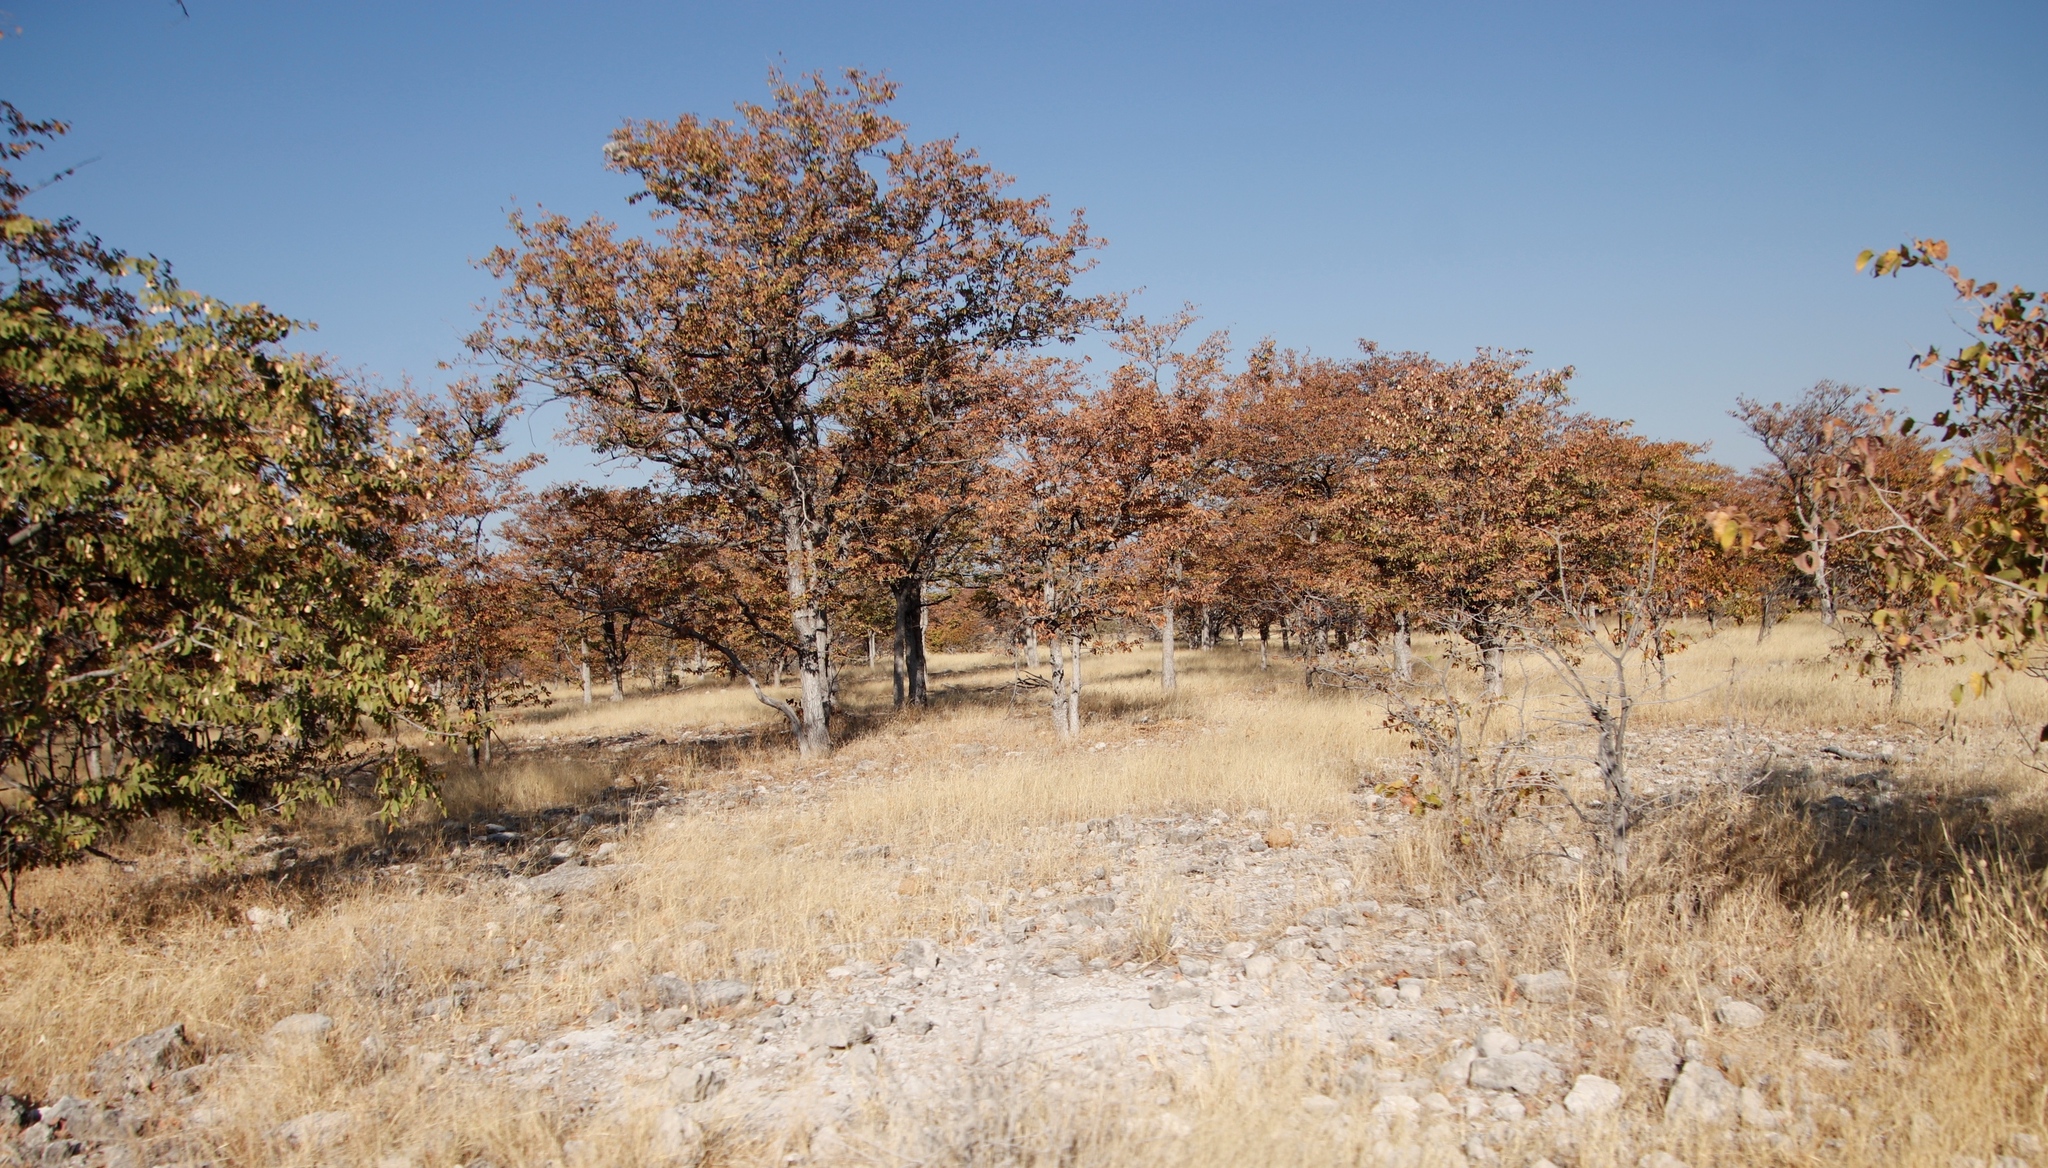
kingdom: Plantae
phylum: Tracheophyta
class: Magnoliopsida
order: Fabales
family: Fabaceae
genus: Colophospermum
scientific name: Colophospermum mopane
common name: Mopane
